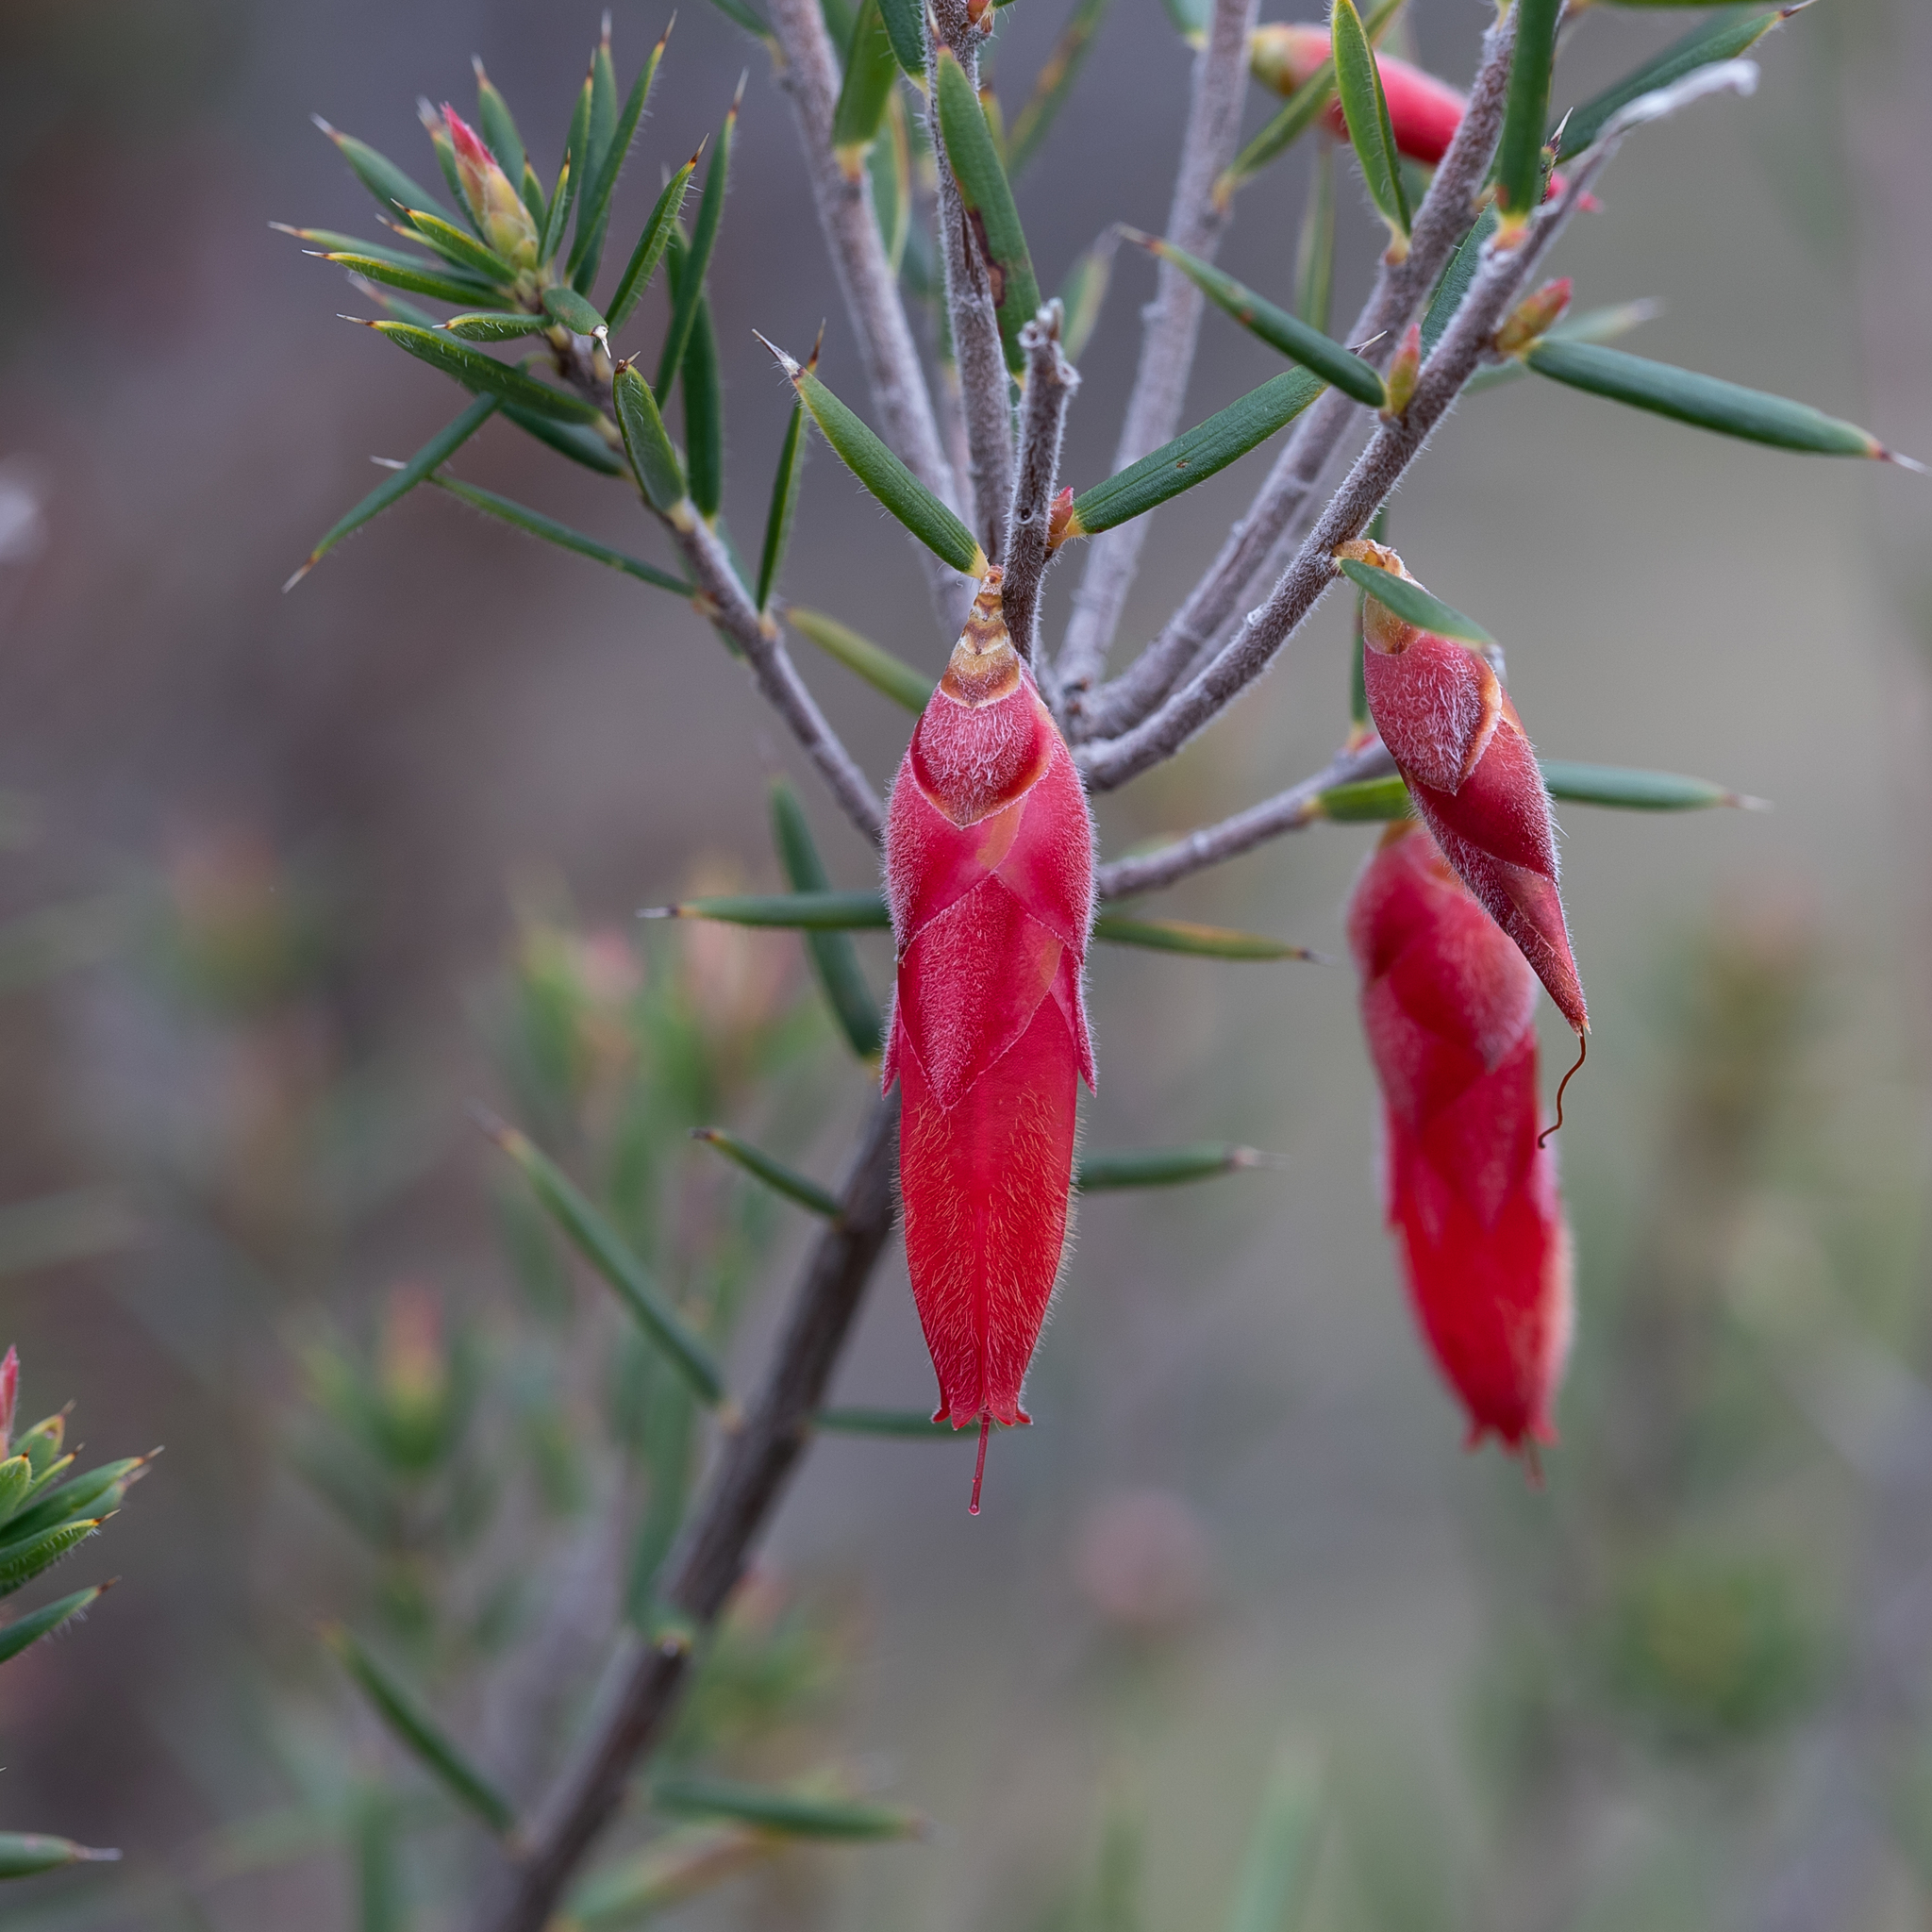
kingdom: Plantae
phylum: Tracheophyta
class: Magnoliopsida
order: Ericales
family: Ericaceae
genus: Stenanthera
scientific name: Stenanthera conostephioides
